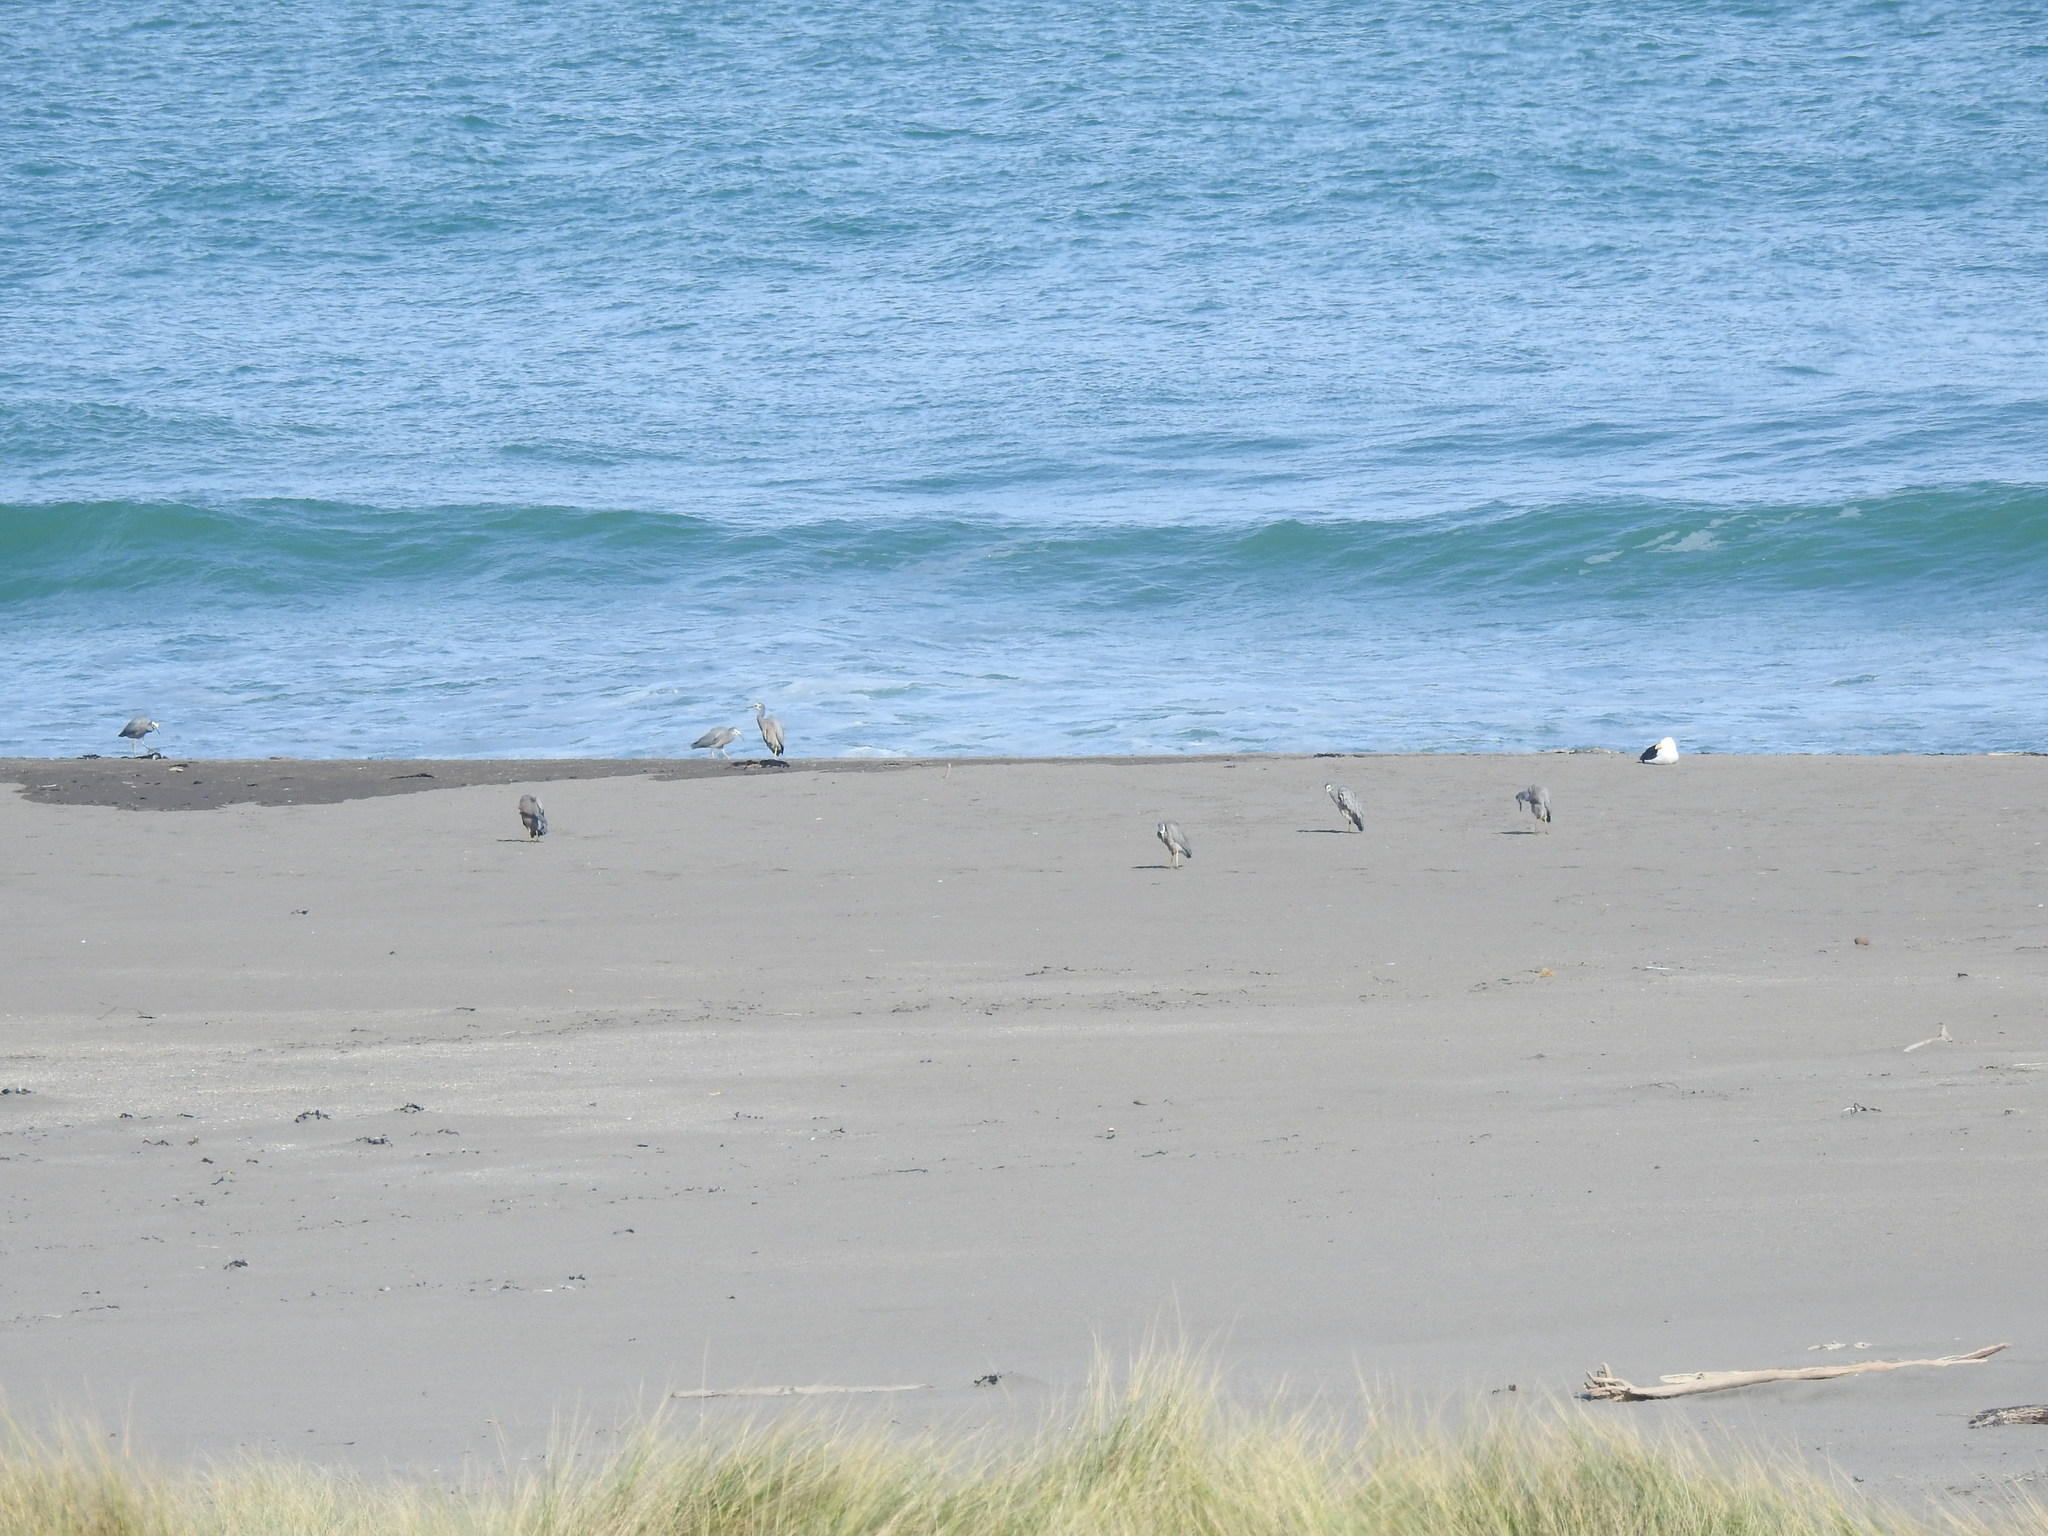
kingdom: Animalia
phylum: Chordata
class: Aves
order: Pelecaniformes
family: Ardeidae
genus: Egretta
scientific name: Egretta novaehollandiae
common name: White-faced heron
